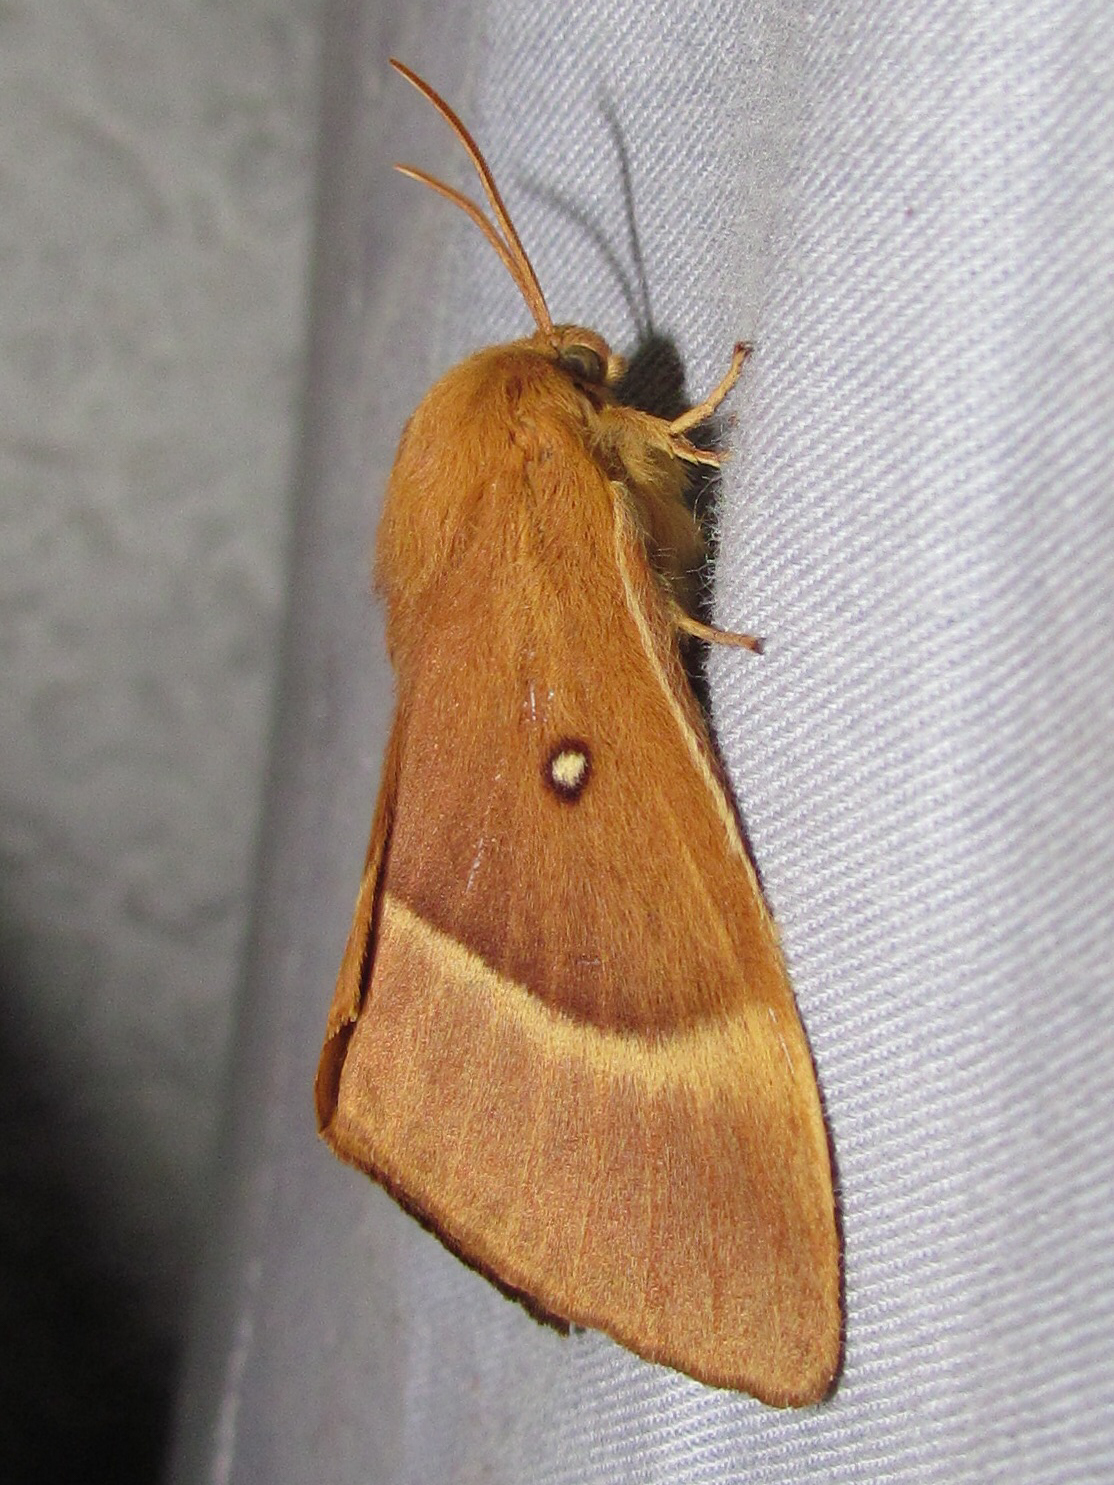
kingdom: Animalia
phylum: Arthropoda
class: Insecta
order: Lepidoptera
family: Lasiocampidae
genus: Lasiocampa
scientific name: Lasiocampa quercus
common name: Oak eggar
